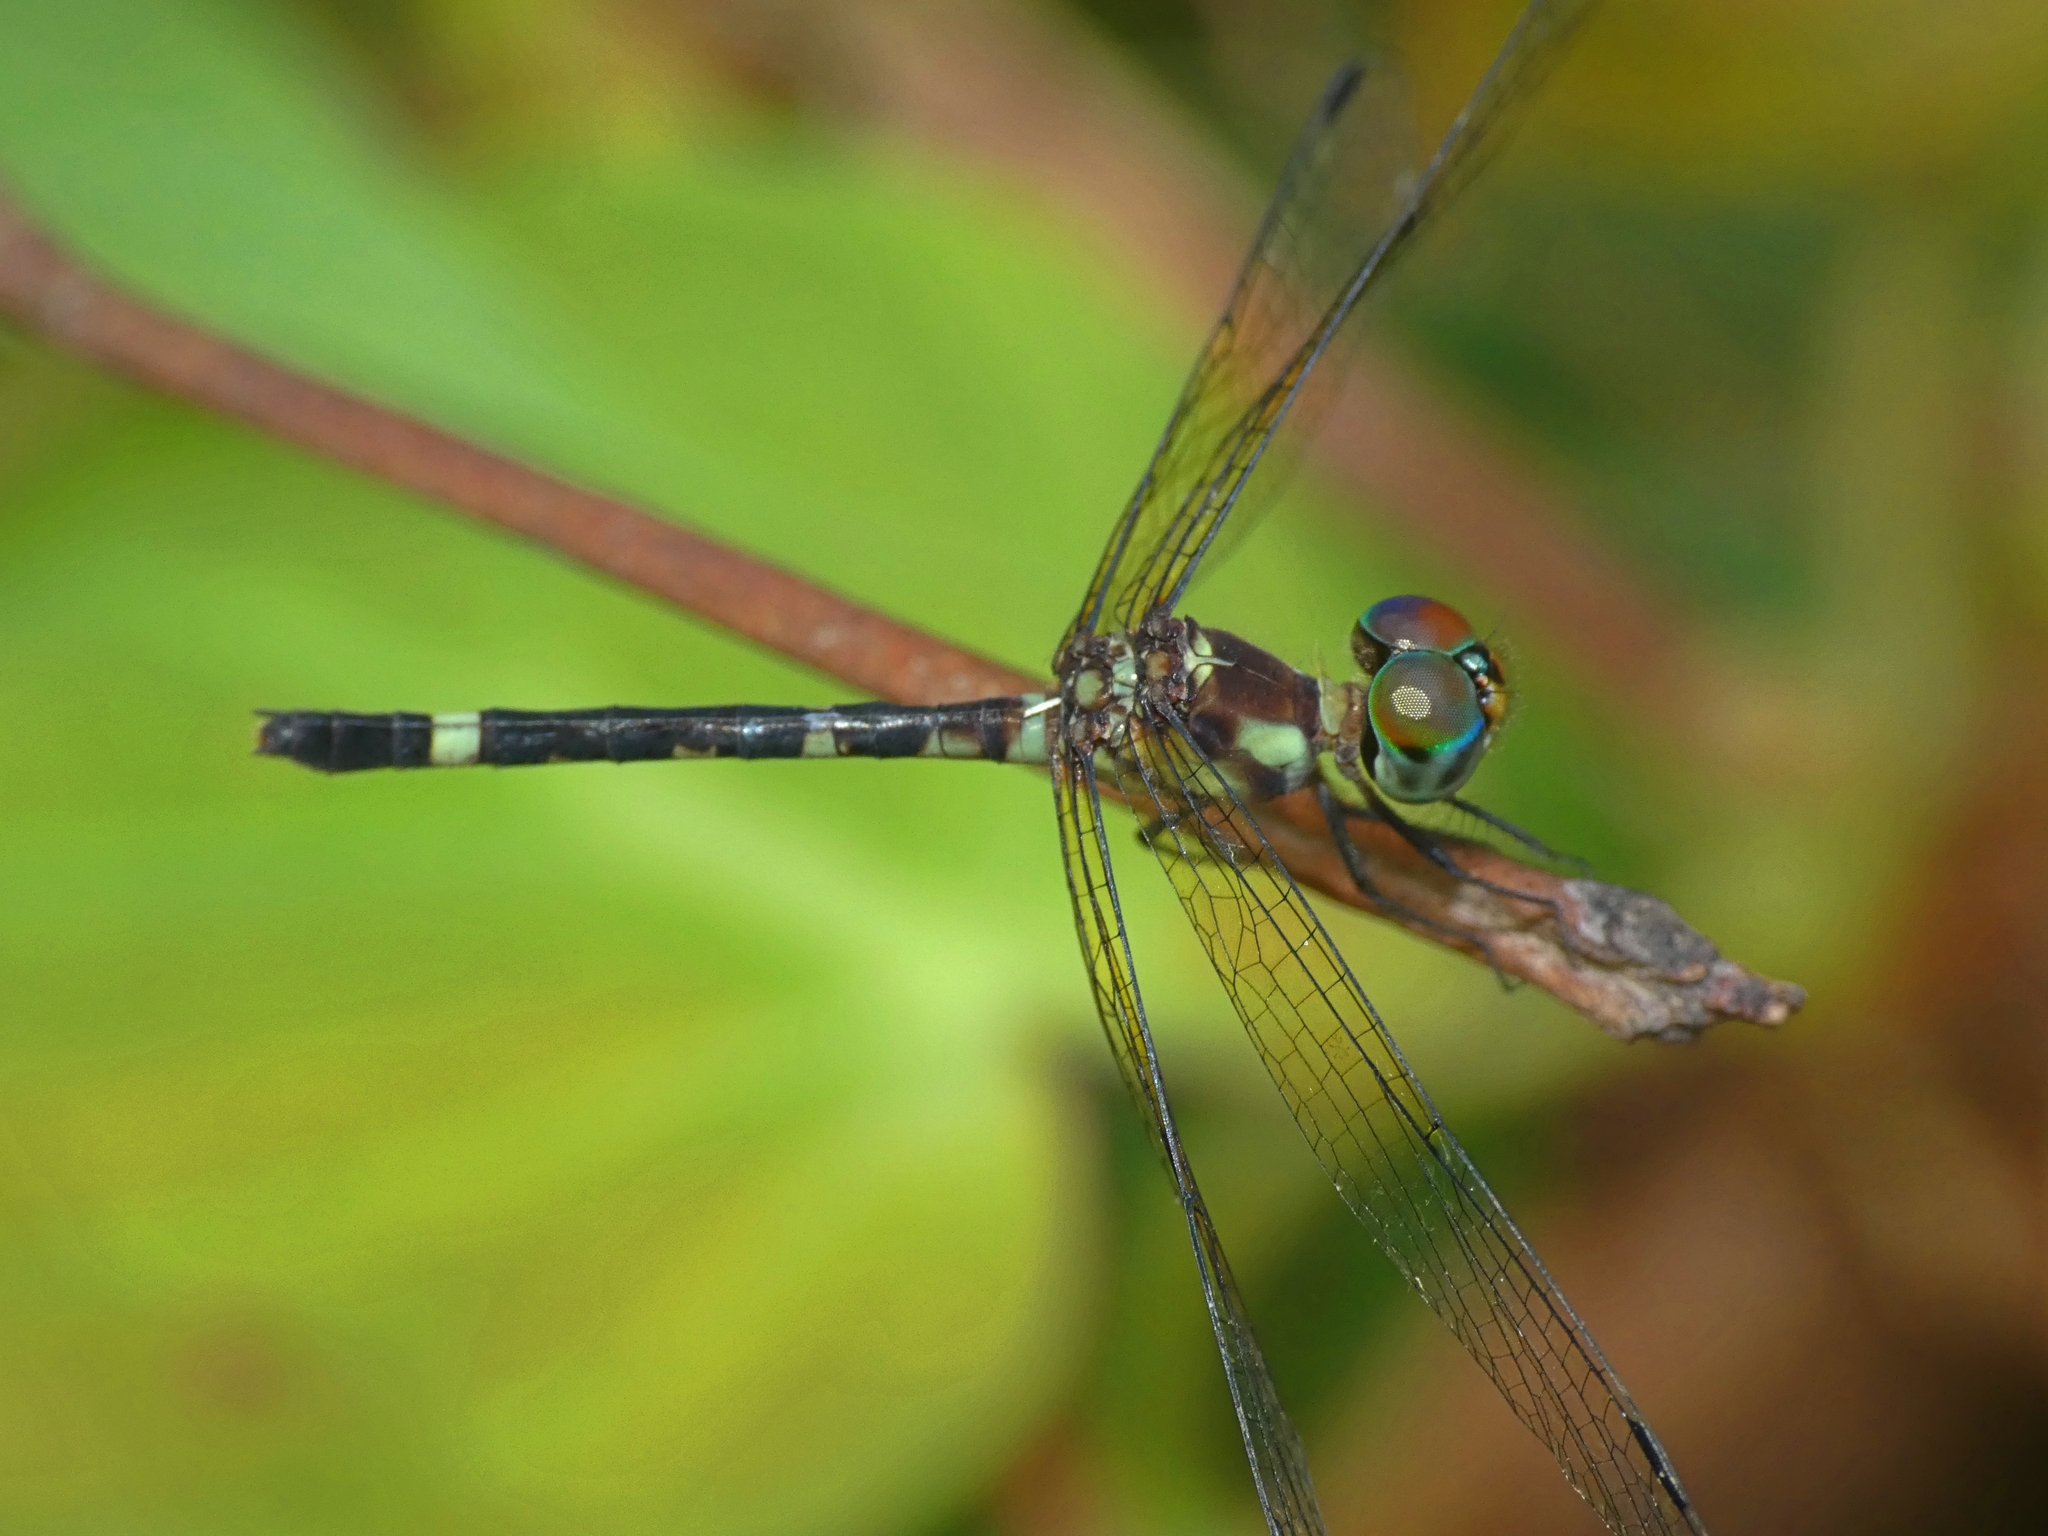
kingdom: Animalia
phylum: Arthropoda
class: Insecta
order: Odonata
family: Libellulidae
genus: Tetrathemis
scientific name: Tetrathemis irregularis
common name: Elf
